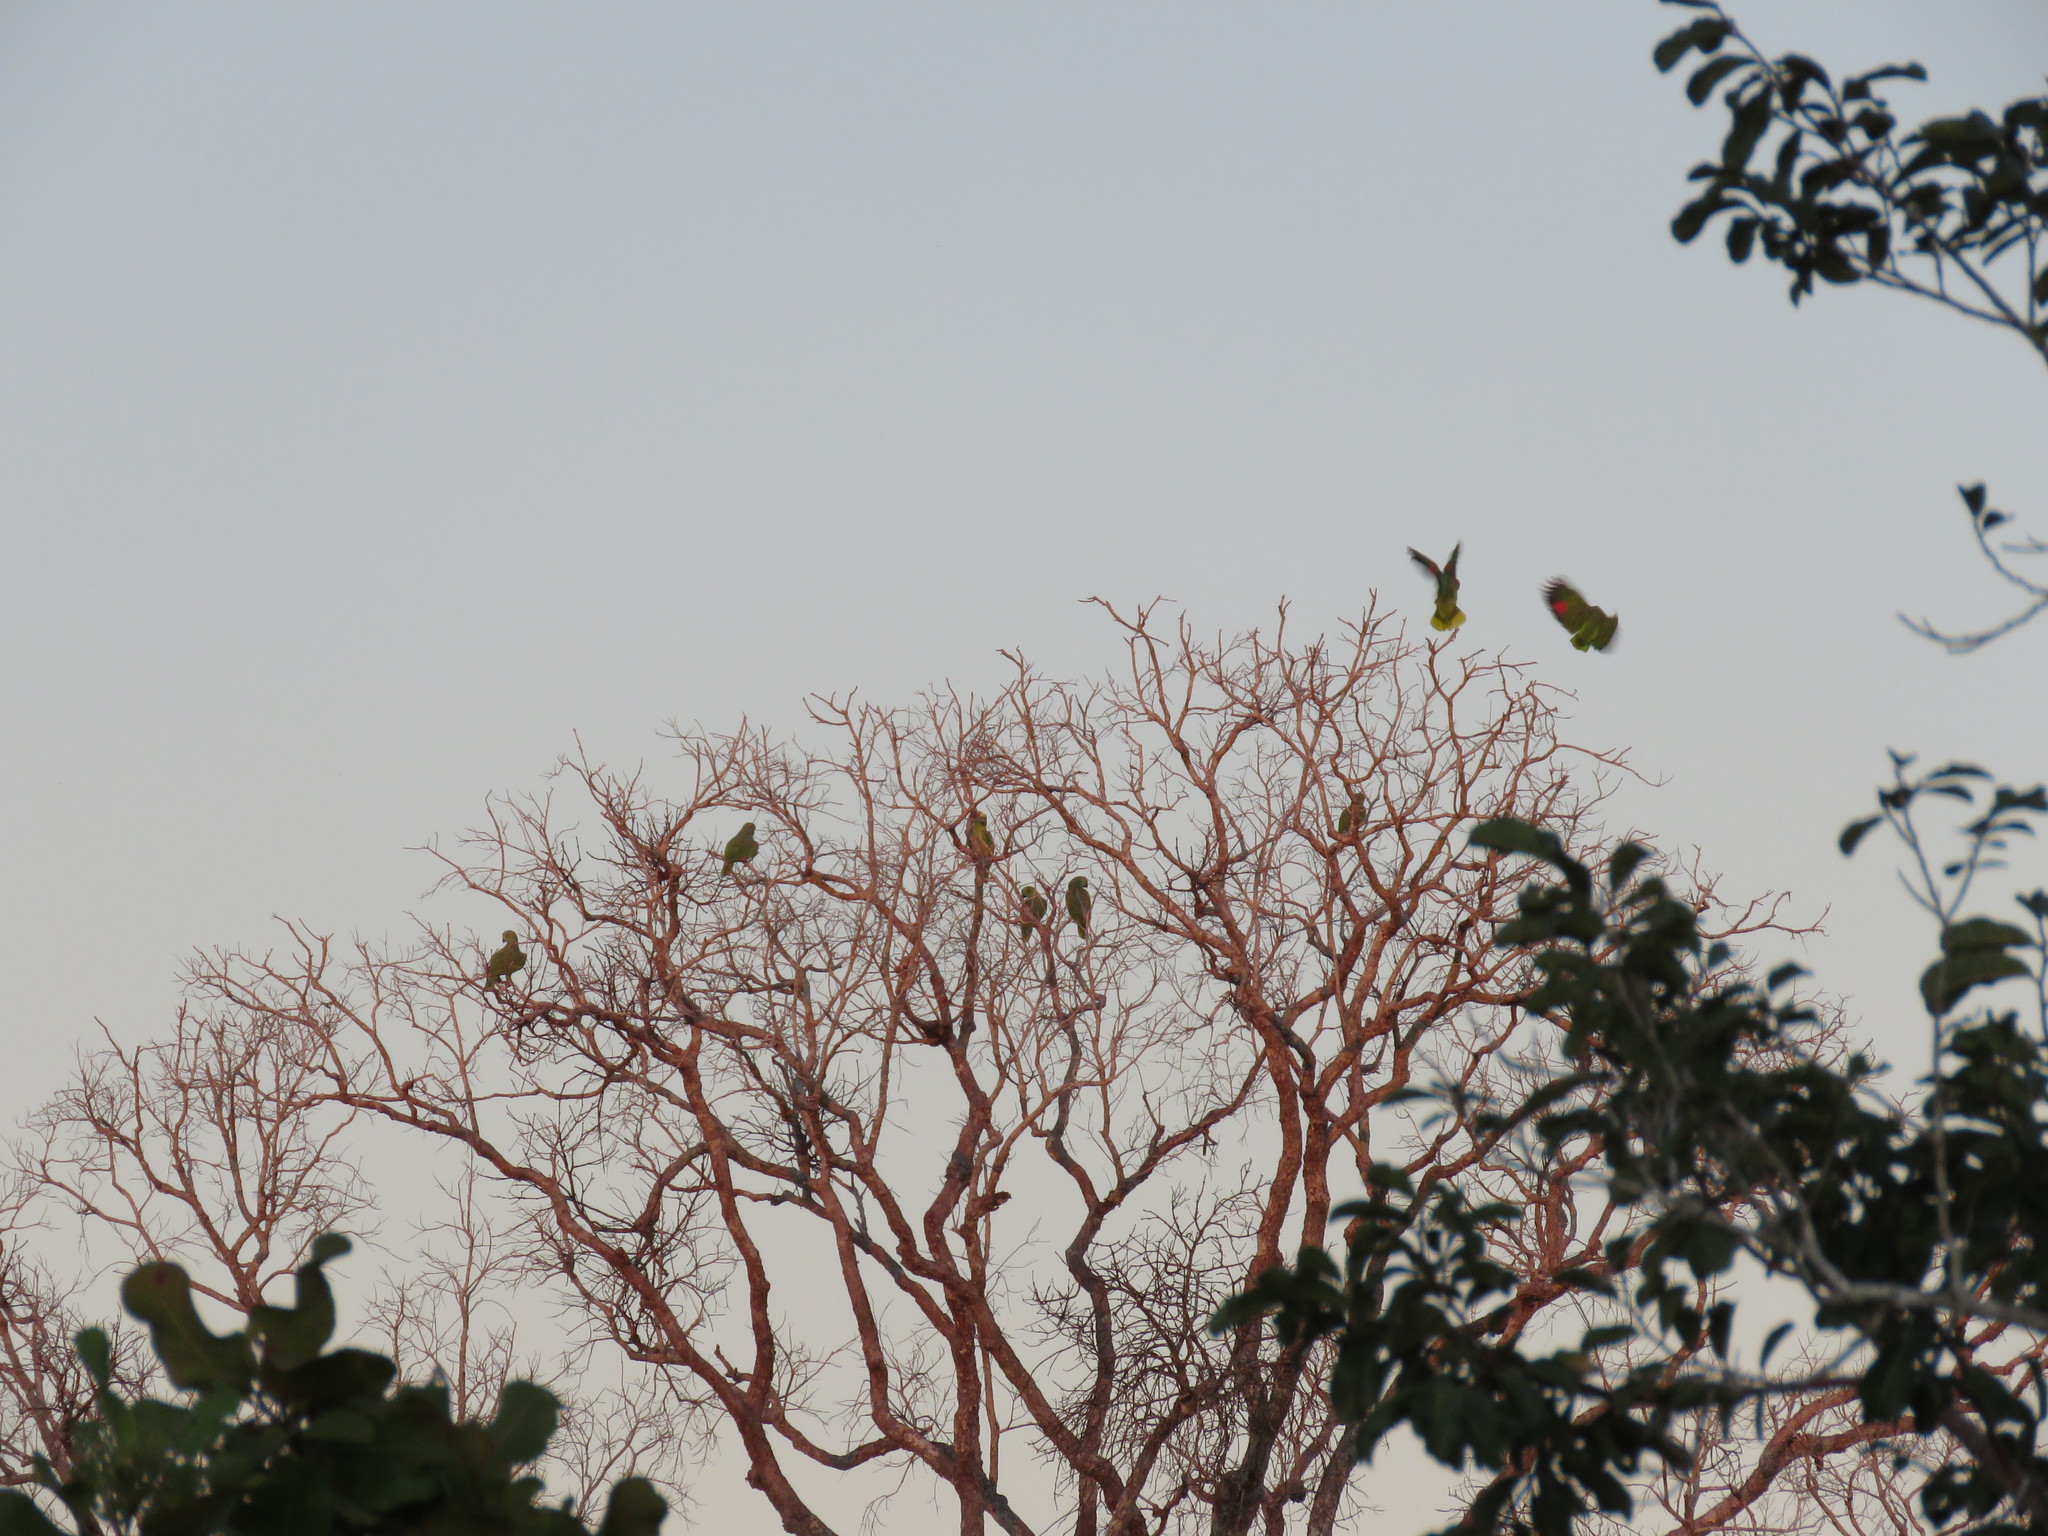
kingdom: Animalia
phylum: Chordata
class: Aves
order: Psittaciformes
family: Psittacidae
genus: Amazona
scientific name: Amazona ochrocephala
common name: Yellow-crowned amazon
